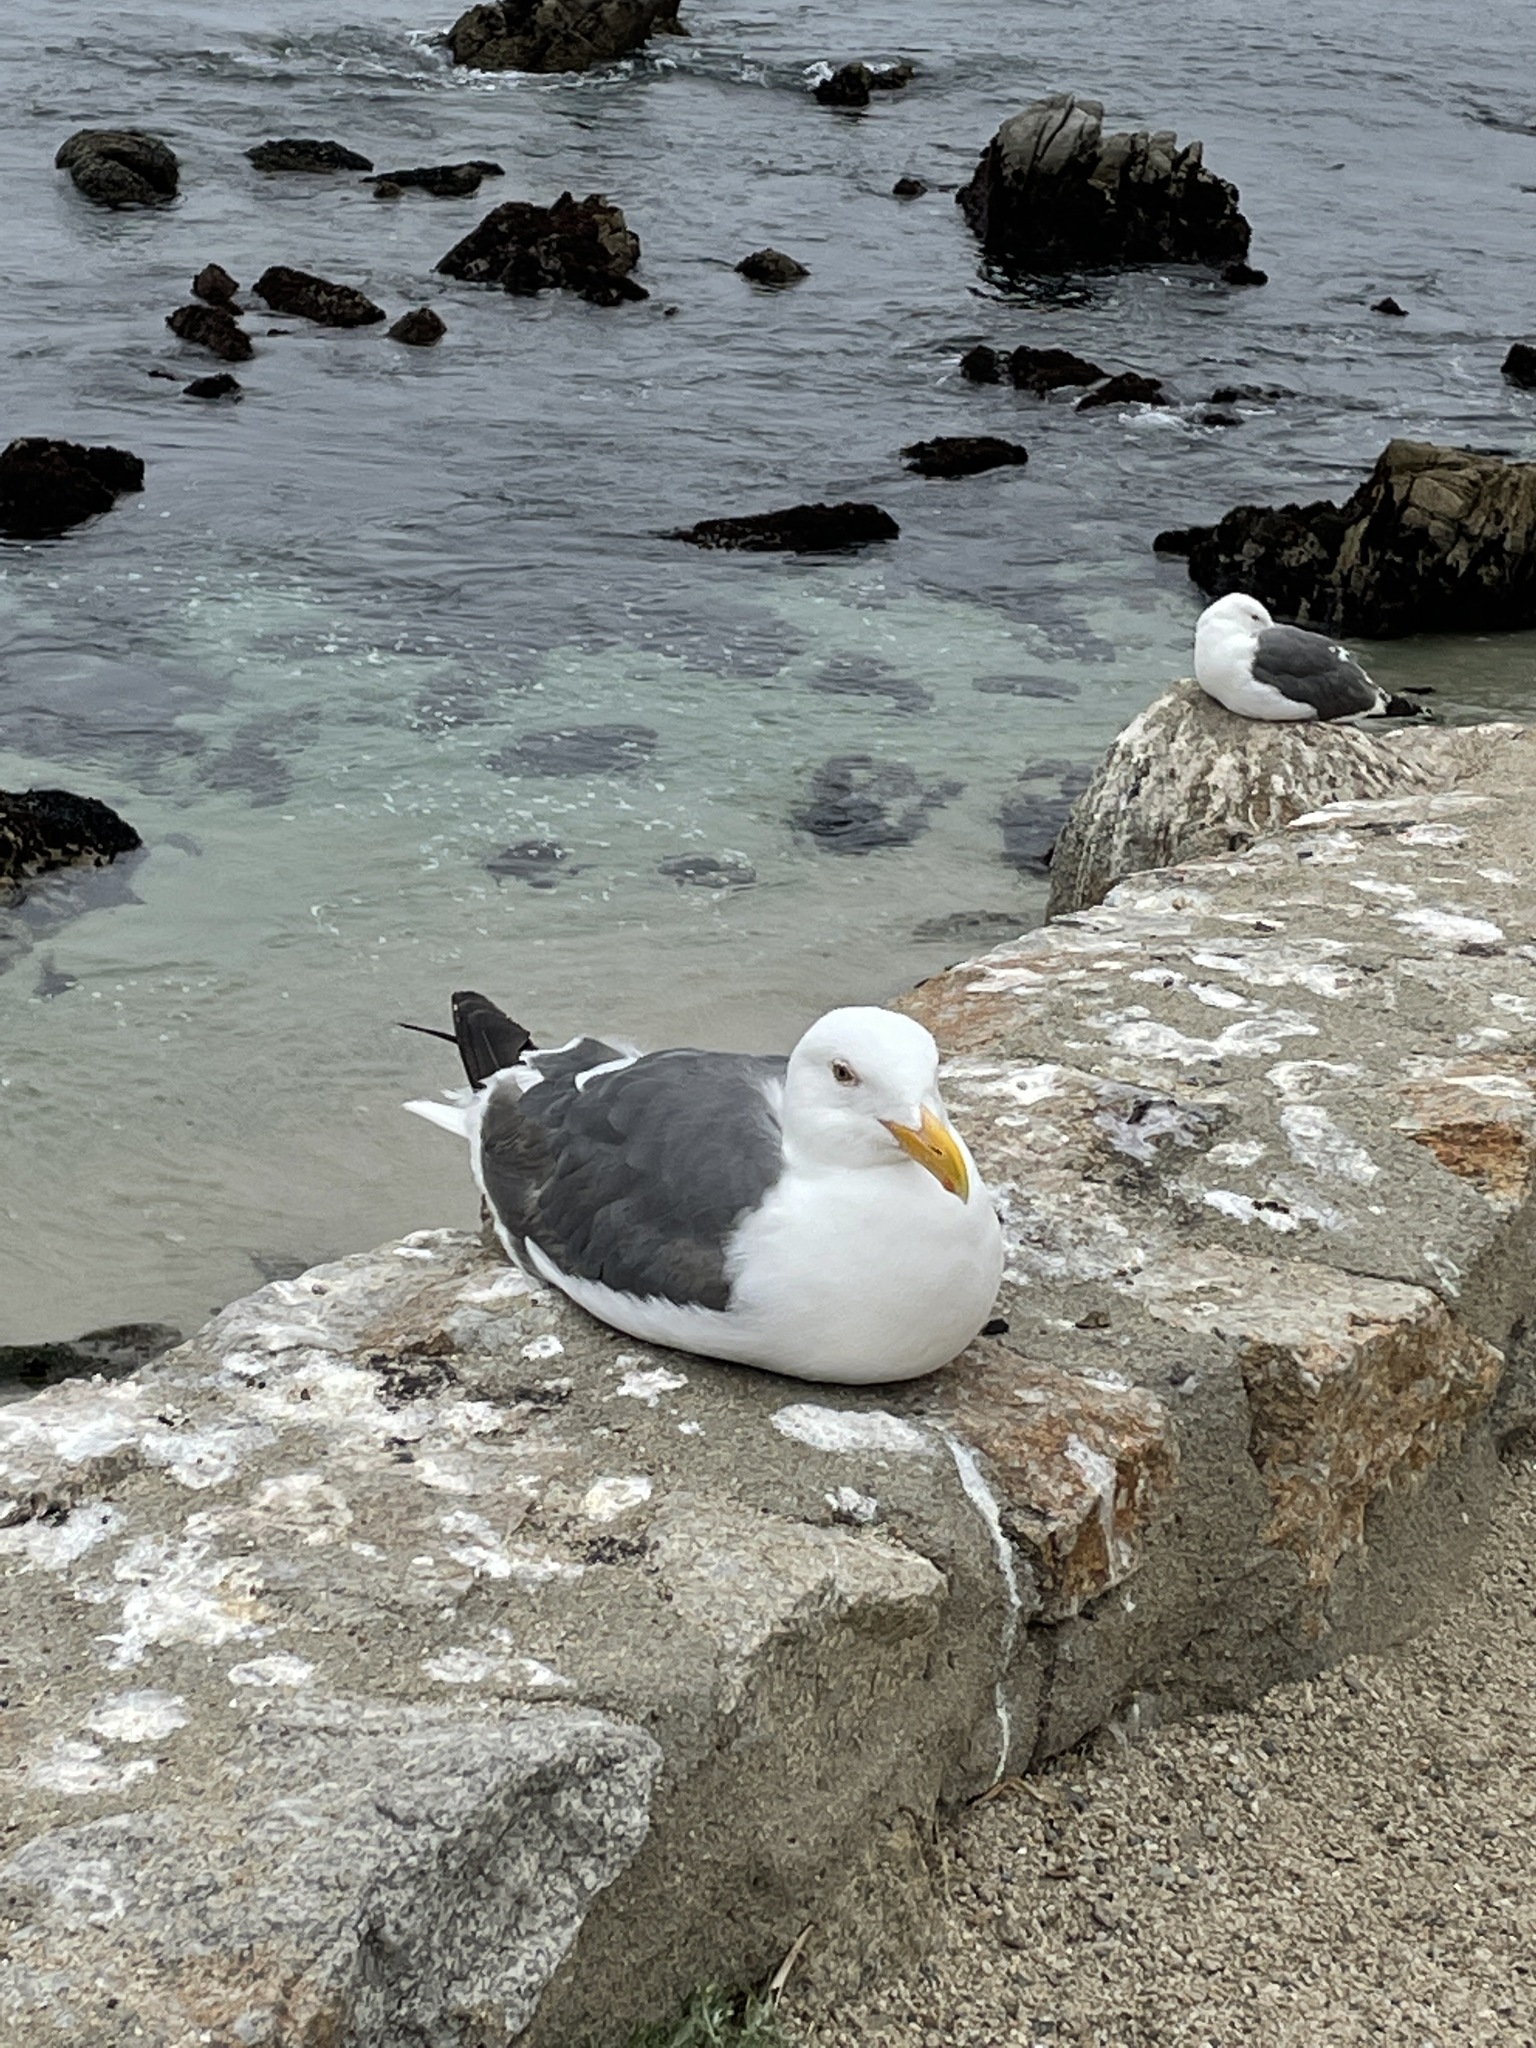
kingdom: Animalia
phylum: Chordata
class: Aves
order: Charadriiformes
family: Laridae
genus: Larus
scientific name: Larus occidentalis
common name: Western gull
